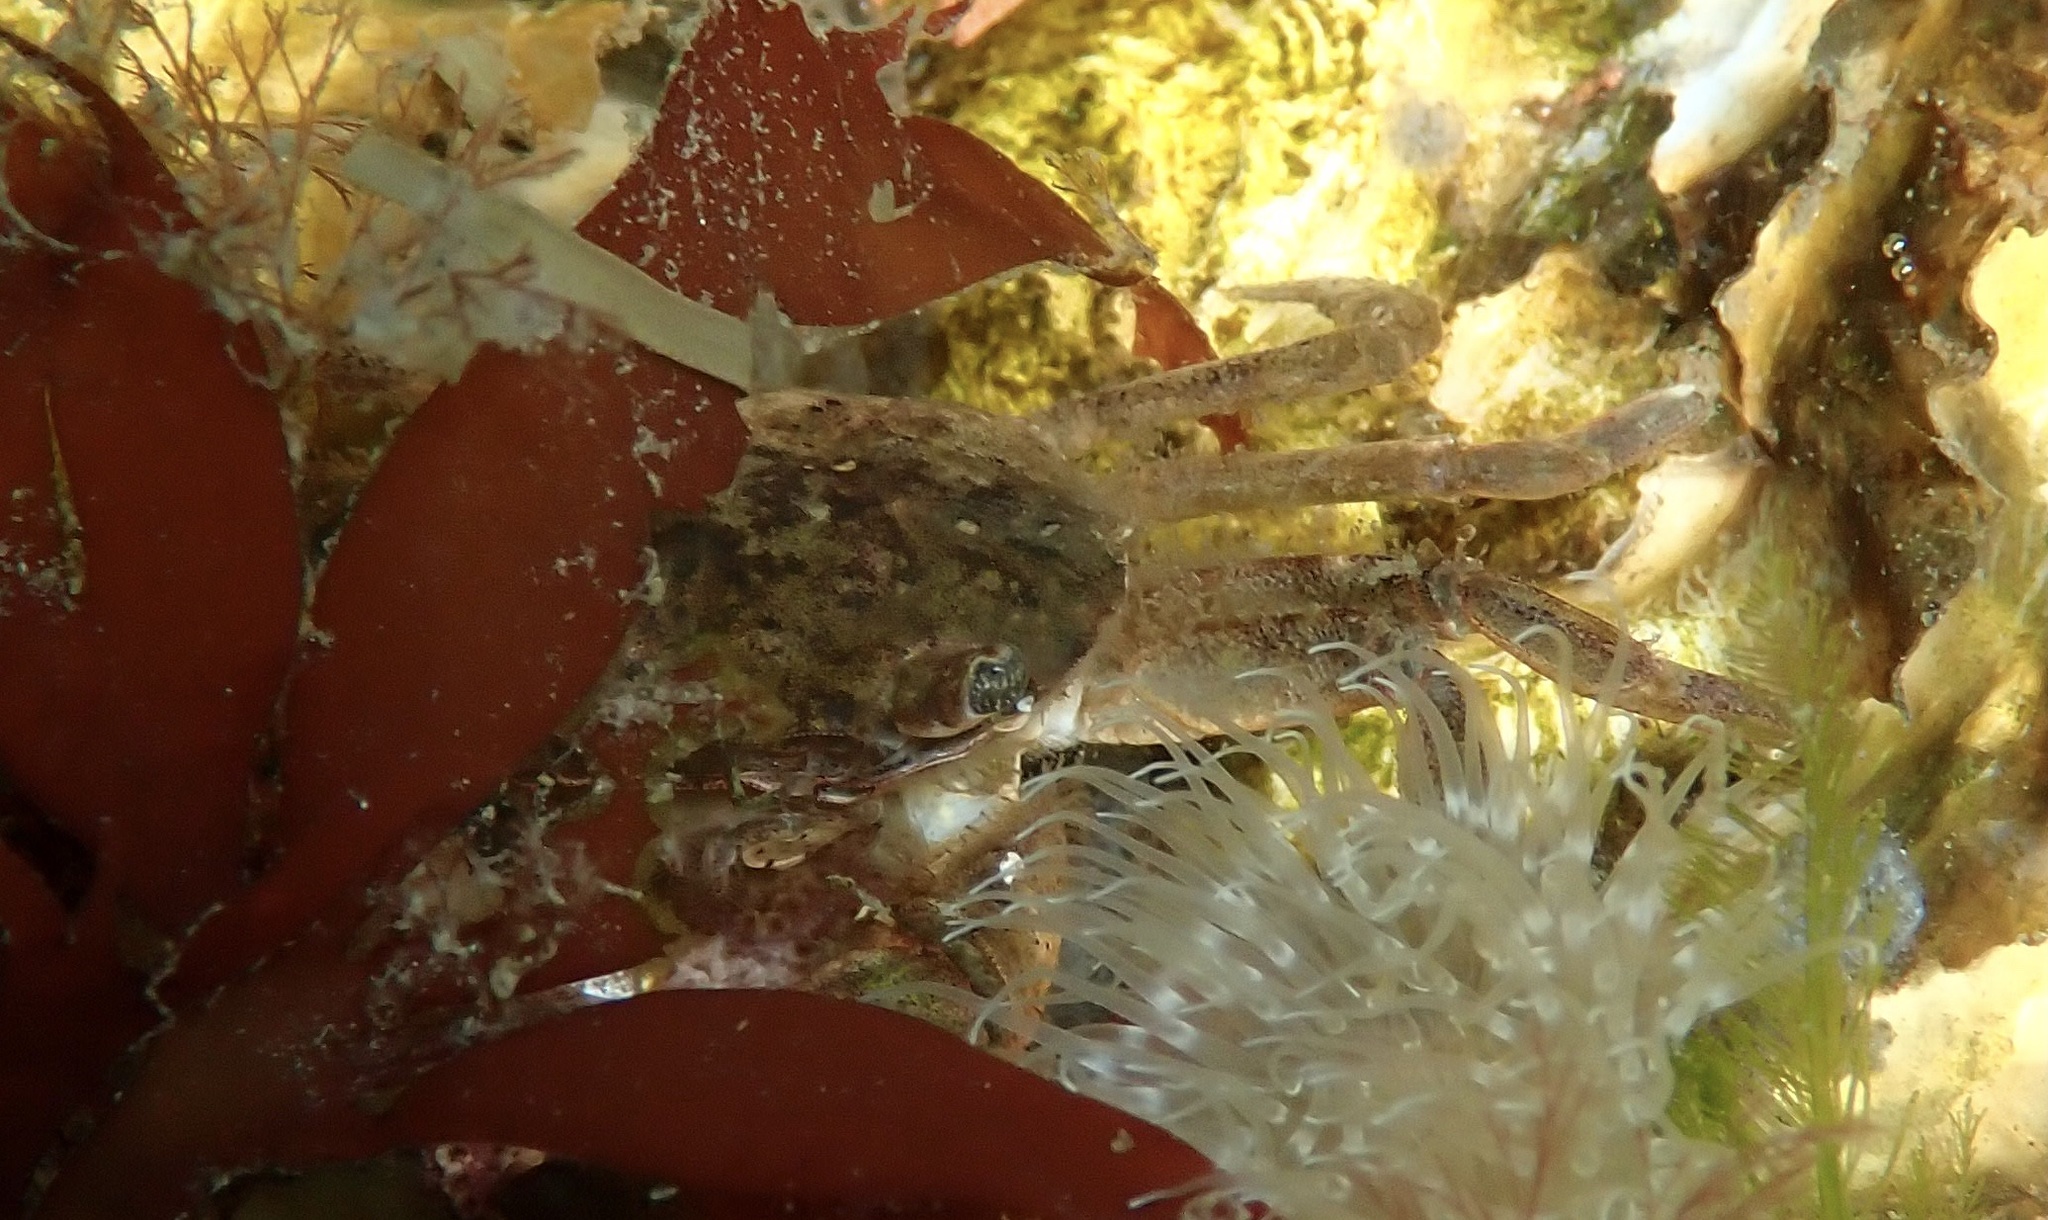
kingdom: Animalia
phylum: Arthropoda
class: Malacostraca
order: Decapoda
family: Varunidae
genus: Hemigrapsus
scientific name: Hemigrapsus takanoi
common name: Asian brush crab
